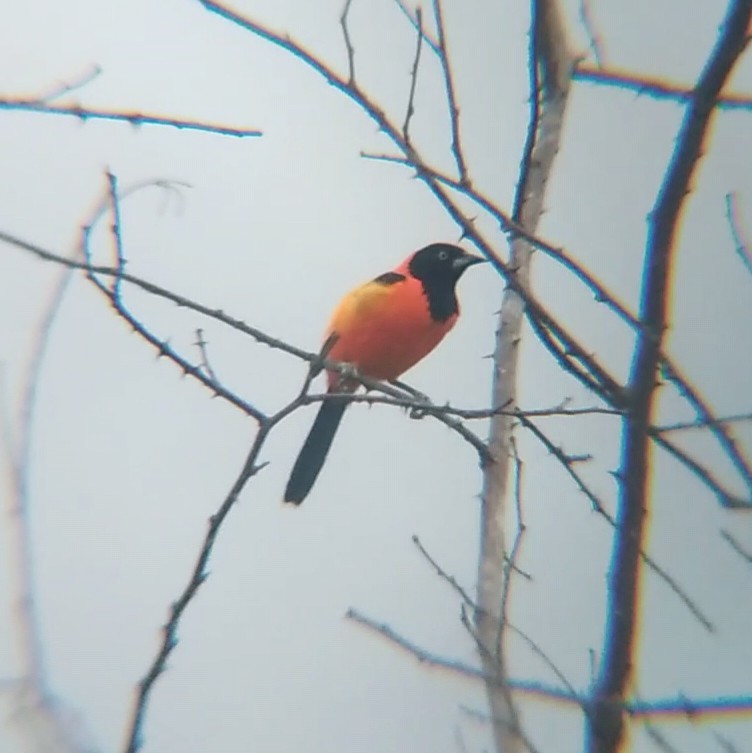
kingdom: Animalia
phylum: Chordata
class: Aves
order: Passeriformes
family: Icteridae
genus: Icterus
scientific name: Icterus icterus
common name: Venezuelan troupial
